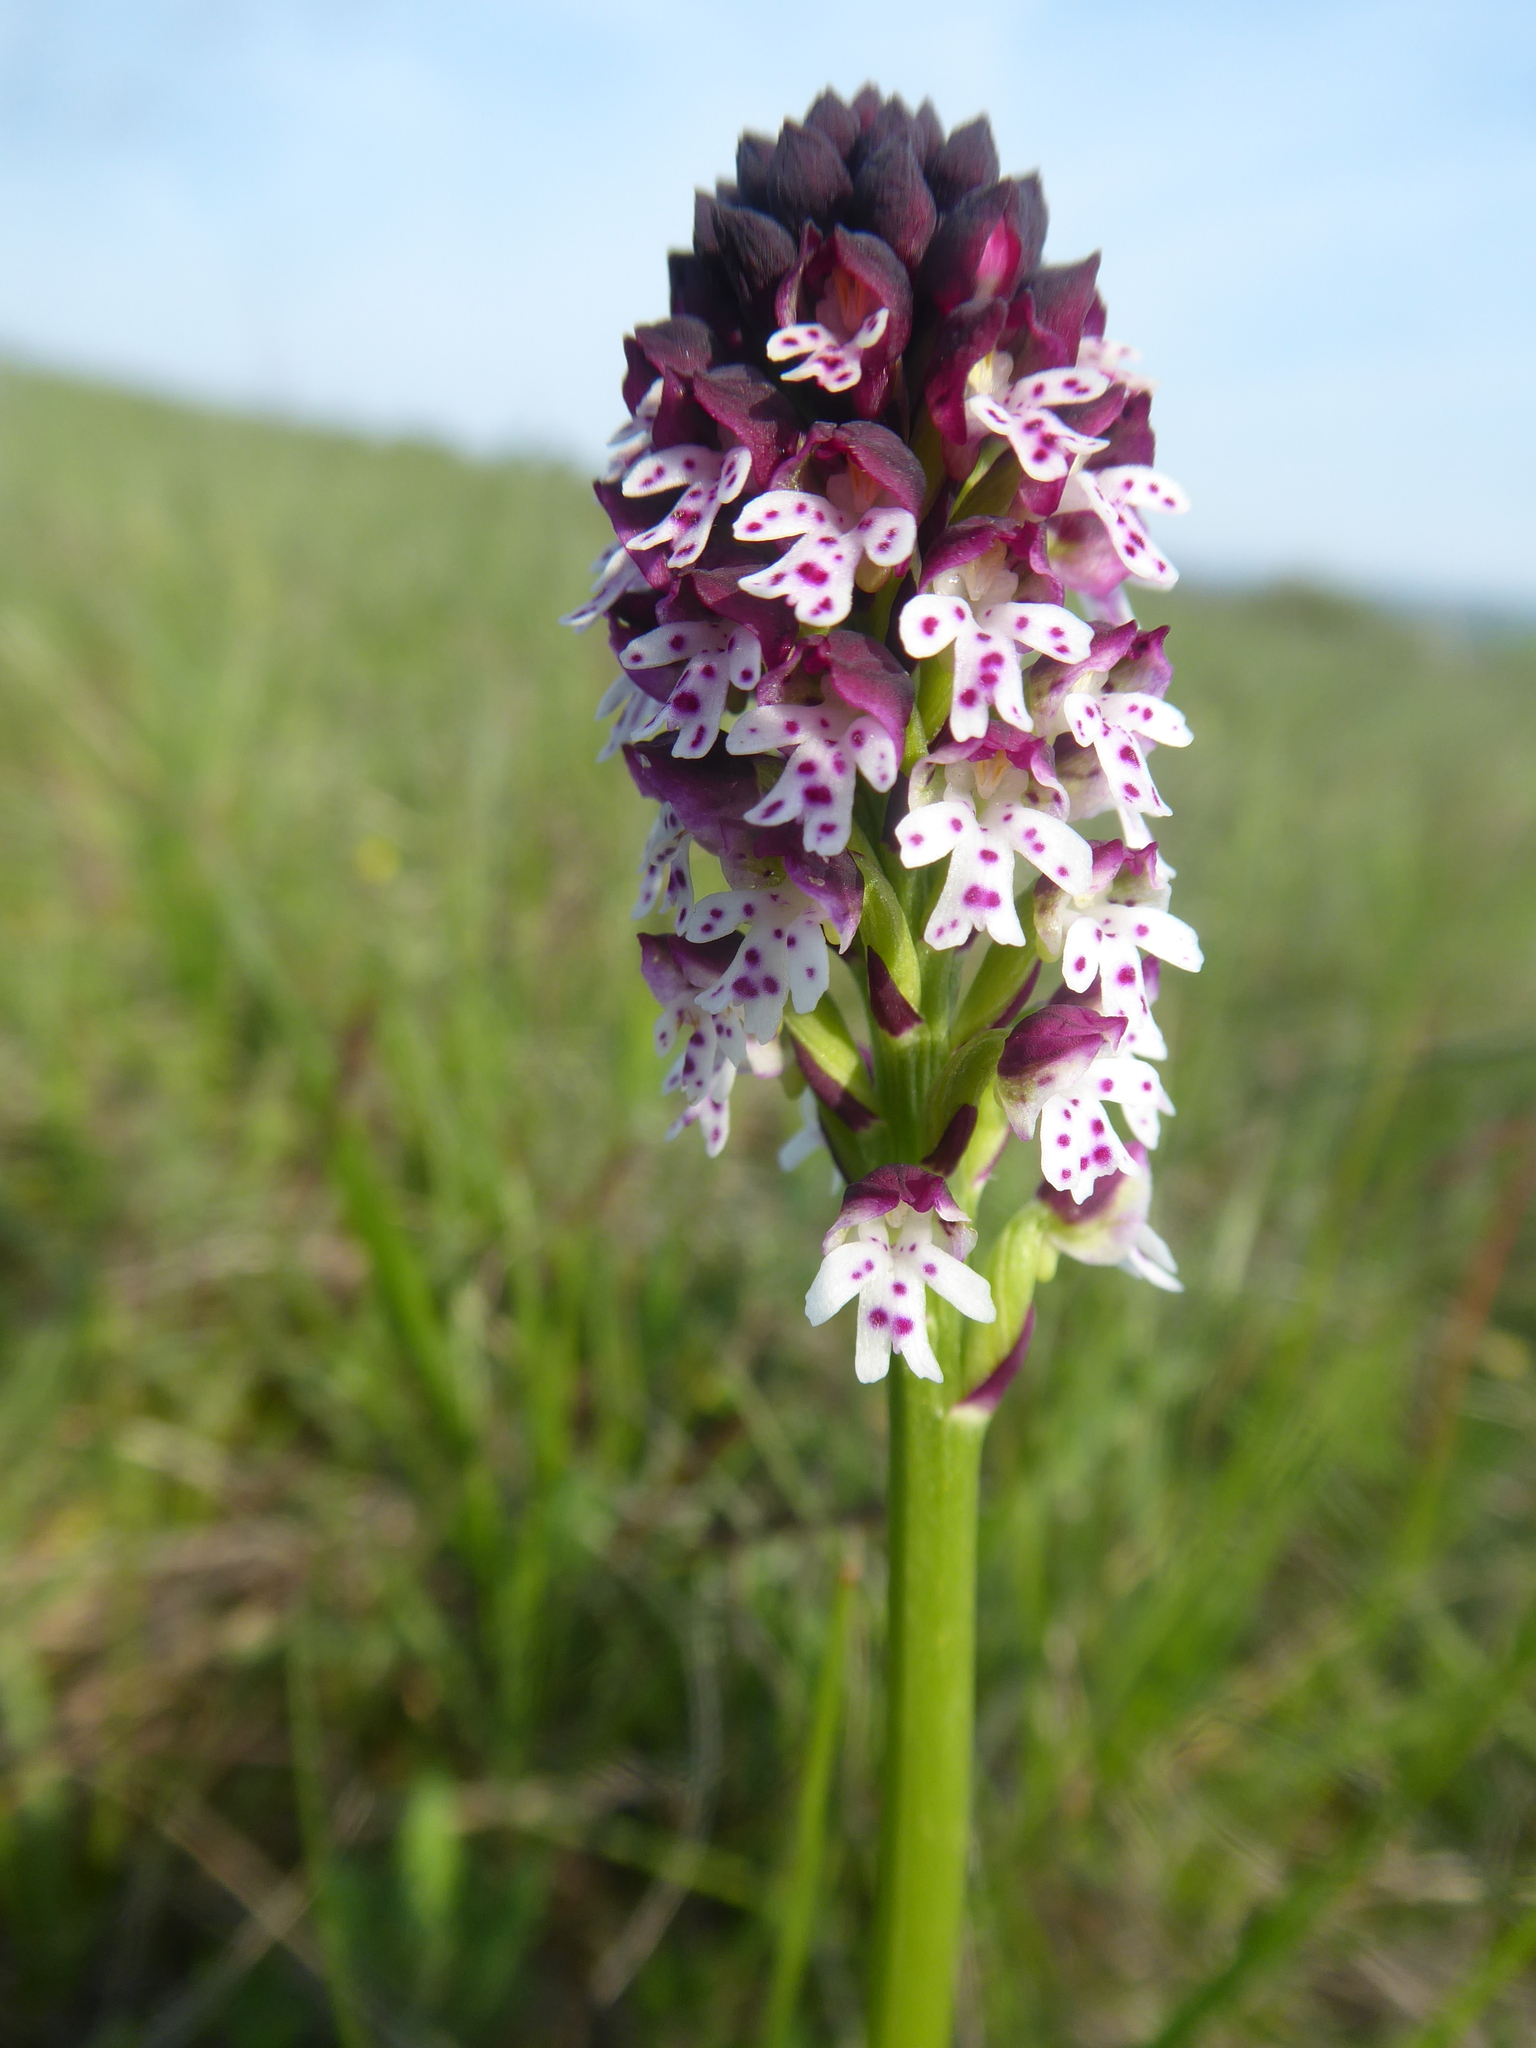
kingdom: Plantae
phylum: Tracheophyta
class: Liliopsida
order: Asparagales
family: Orchidaceae
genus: Neotinea
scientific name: Neotinea ustulata
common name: Burnt orchid
